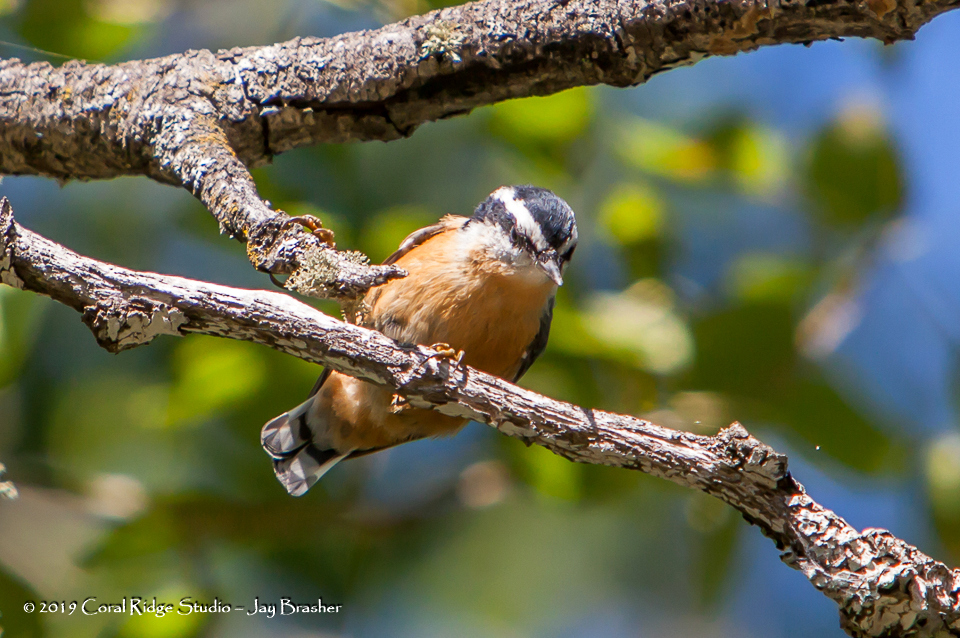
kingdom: Animalia
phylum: Chordata
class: Aves
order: Passeriformes
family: Sittidae
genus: Sitta
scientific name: Sitta canadensis
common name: Red-breasted nuthatch
